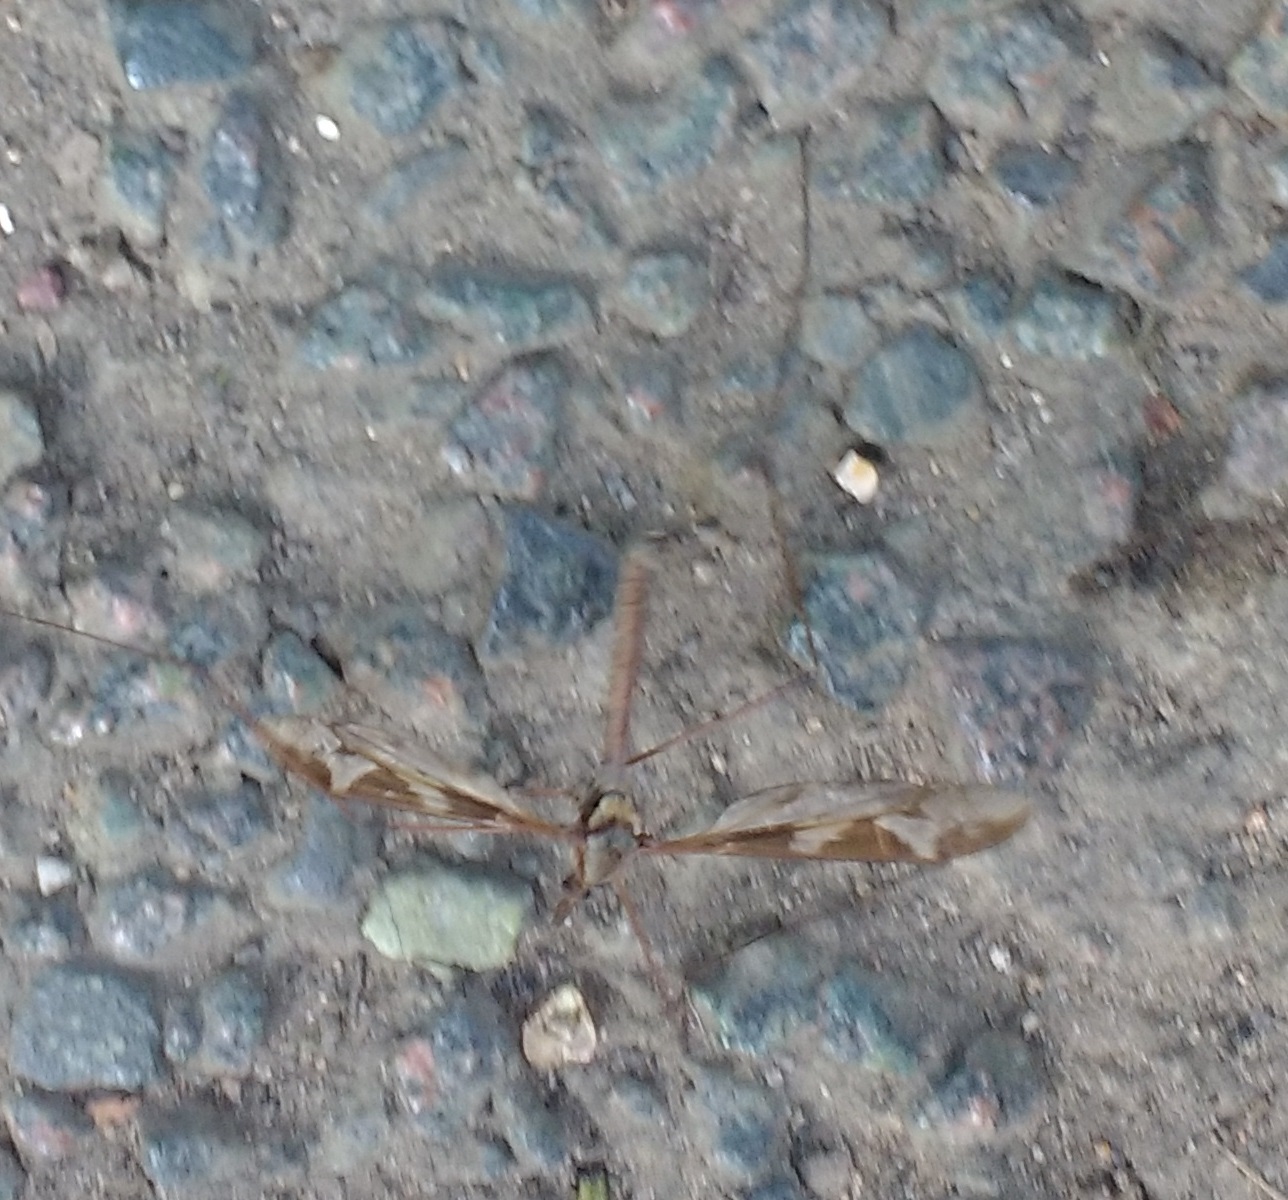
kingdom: Animalia
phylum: Arthropoda
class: Insecta
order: Diptera
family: Tipulidae
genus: Tipula
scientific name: Tipula maxima
